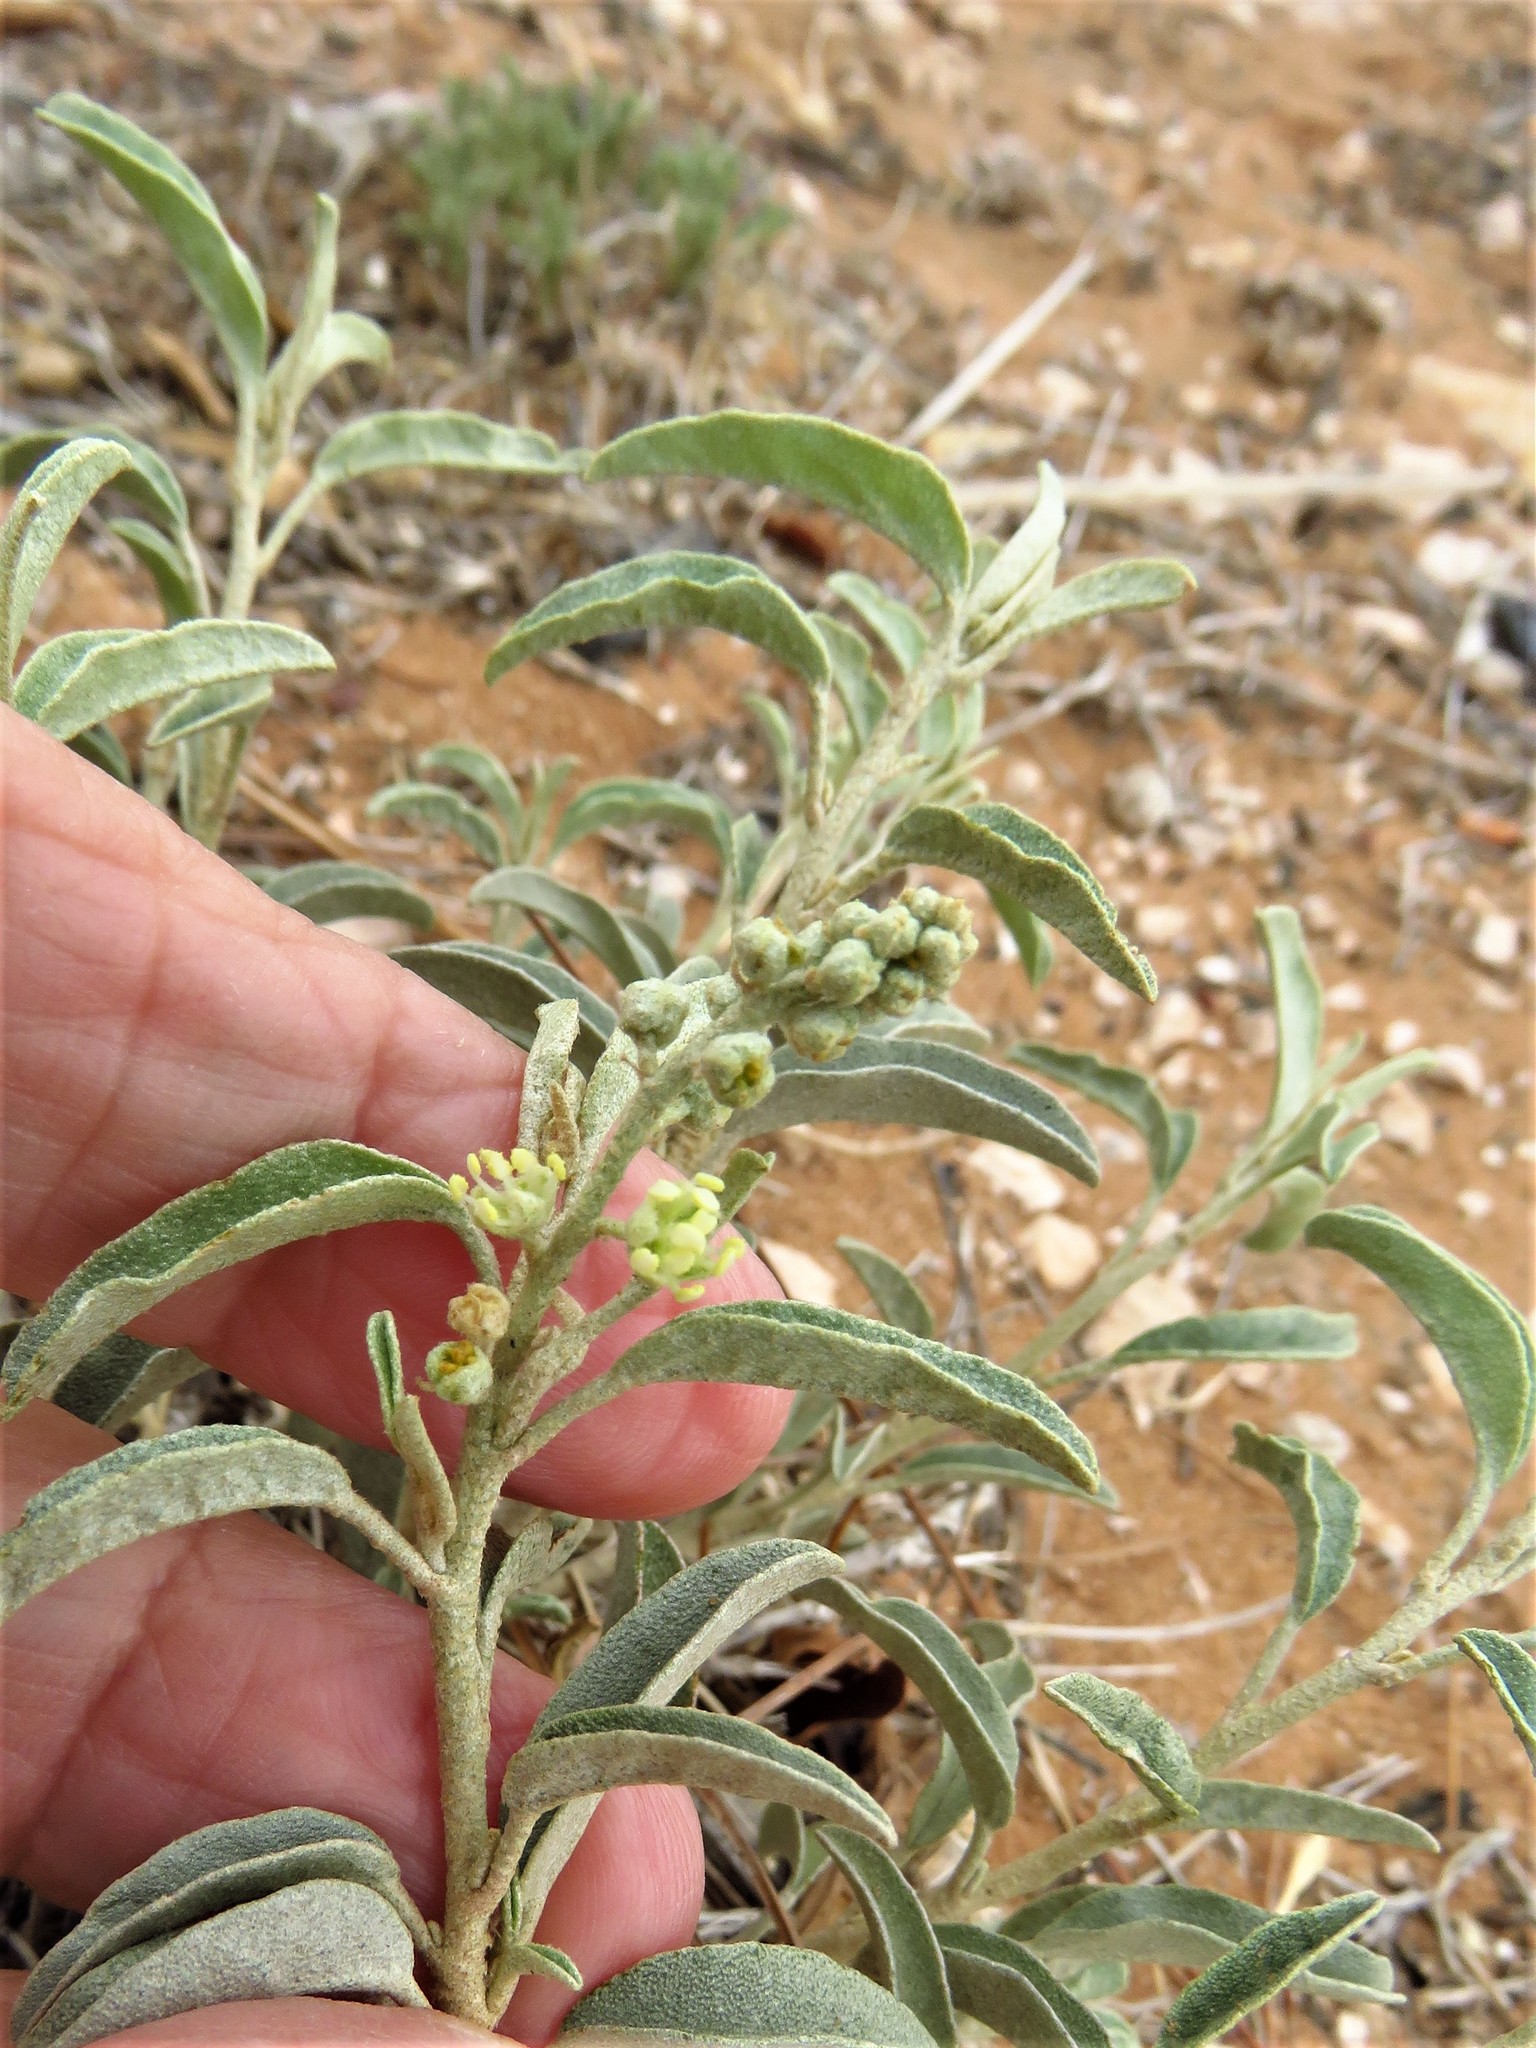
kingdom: Plantae
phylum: Tracheophyta
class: Magnoliopsida
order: Malpighiales
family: Euphorbiaceae
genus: Croton
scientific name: Croton dioicus
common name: Grassland croton
